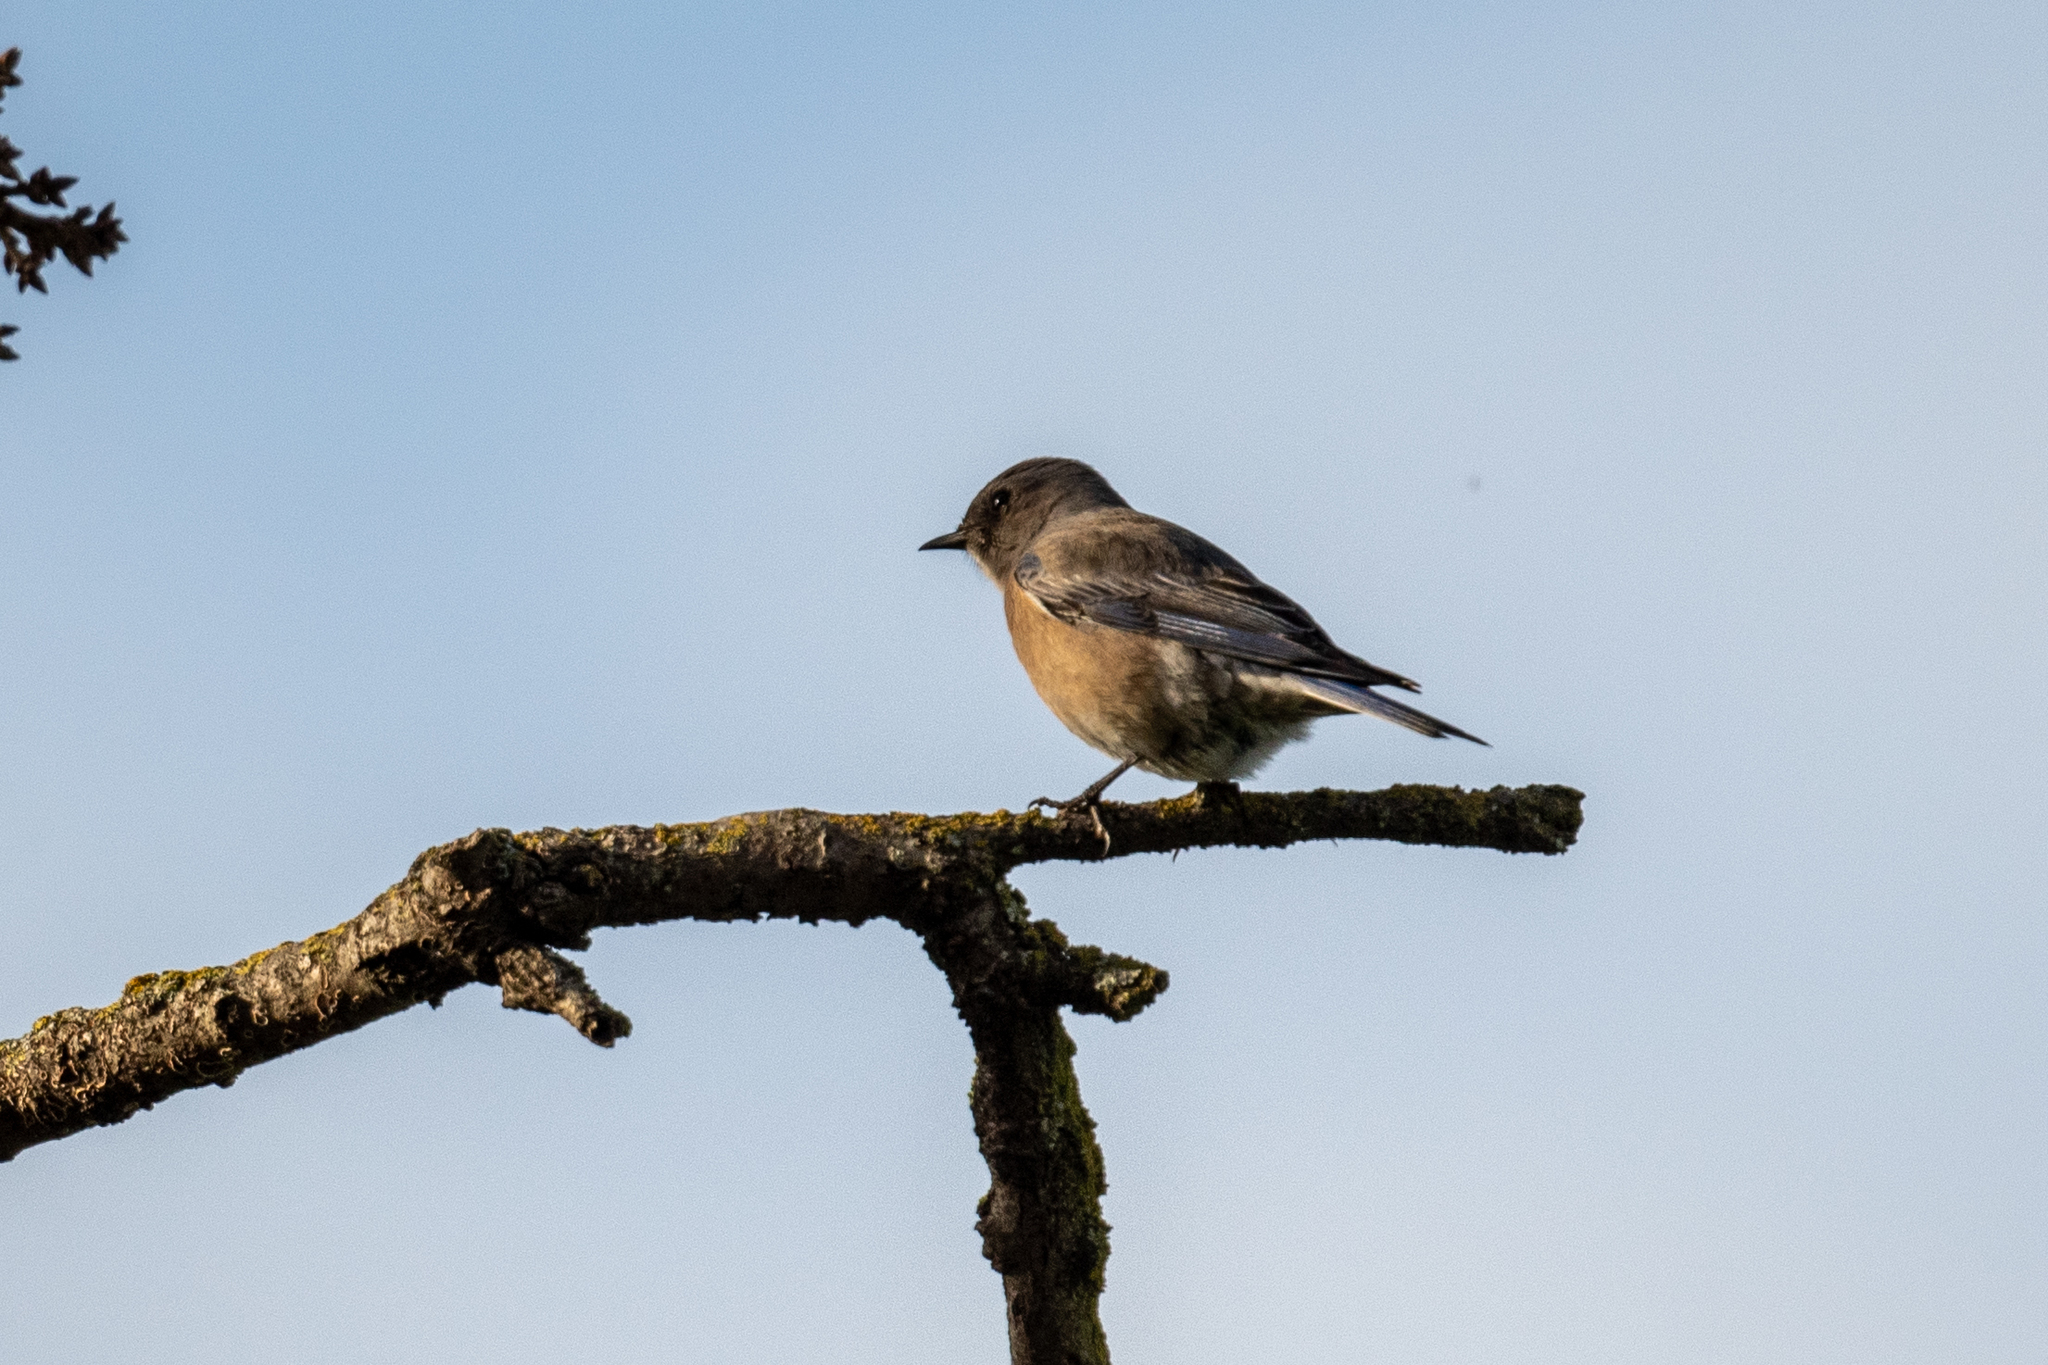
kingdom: Animalia
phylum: Chordata
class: Aves
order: Passeriformes
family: Turdidae
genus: Sialia
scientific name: Sialia mexicana
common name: Western bluebird
